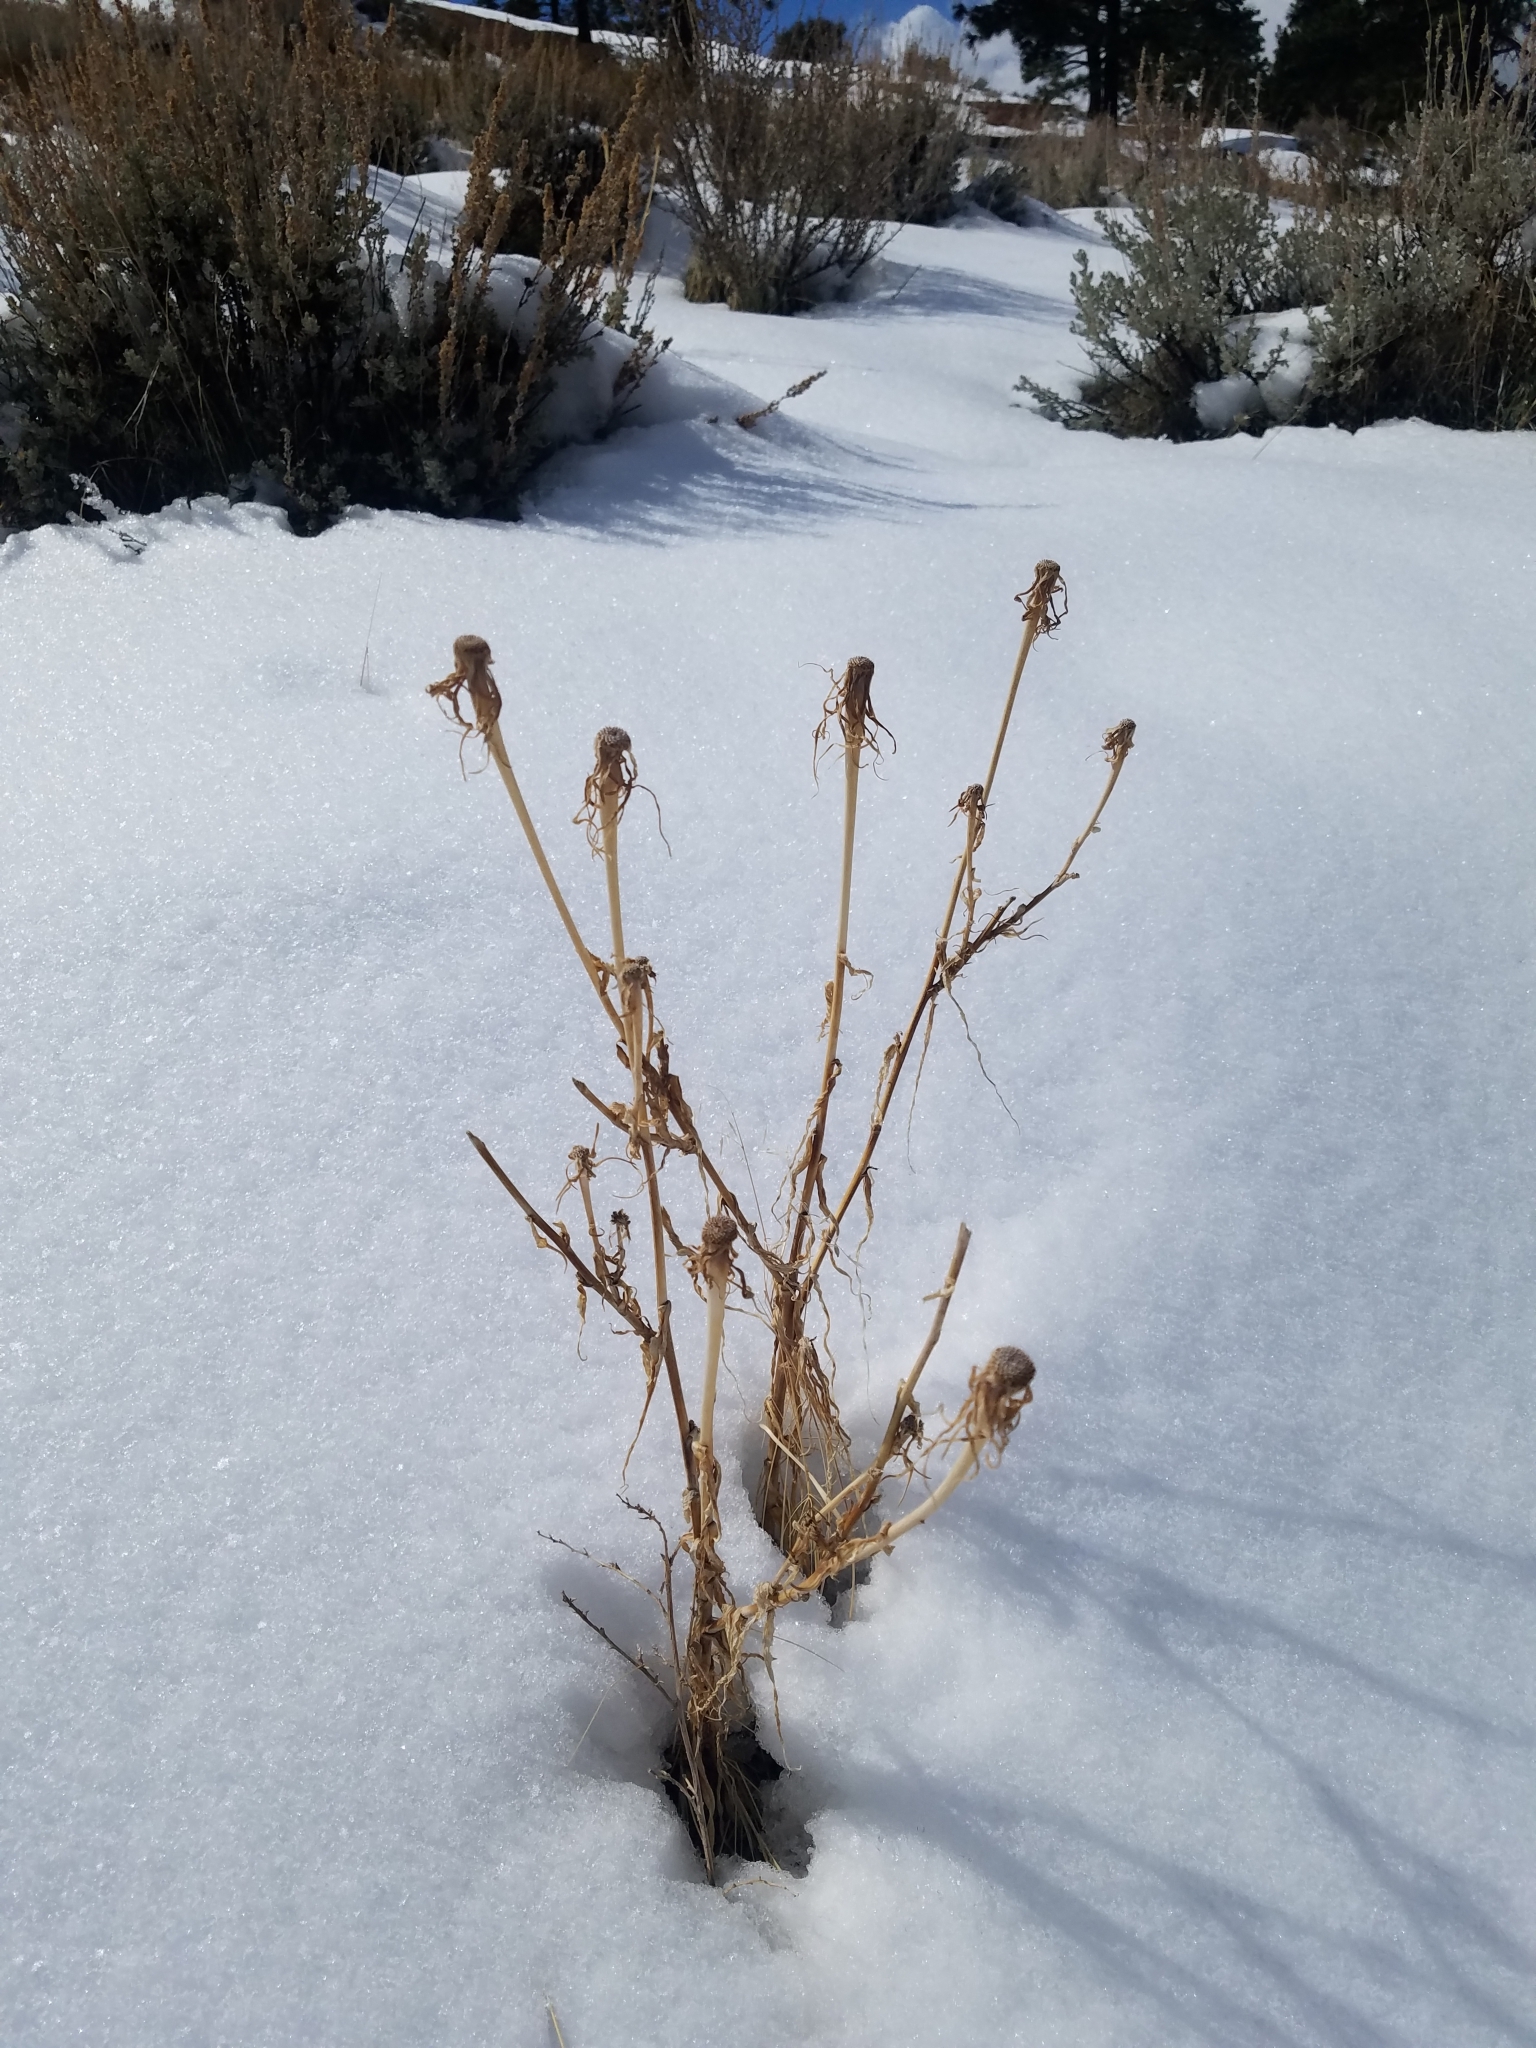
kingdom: Plantae
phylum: Tracheophyta
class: Magnoliopsida
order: Asterales
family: Asteraceae
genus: Tragopogon
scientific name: Tragopogon dubius
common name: Yellow salsify
